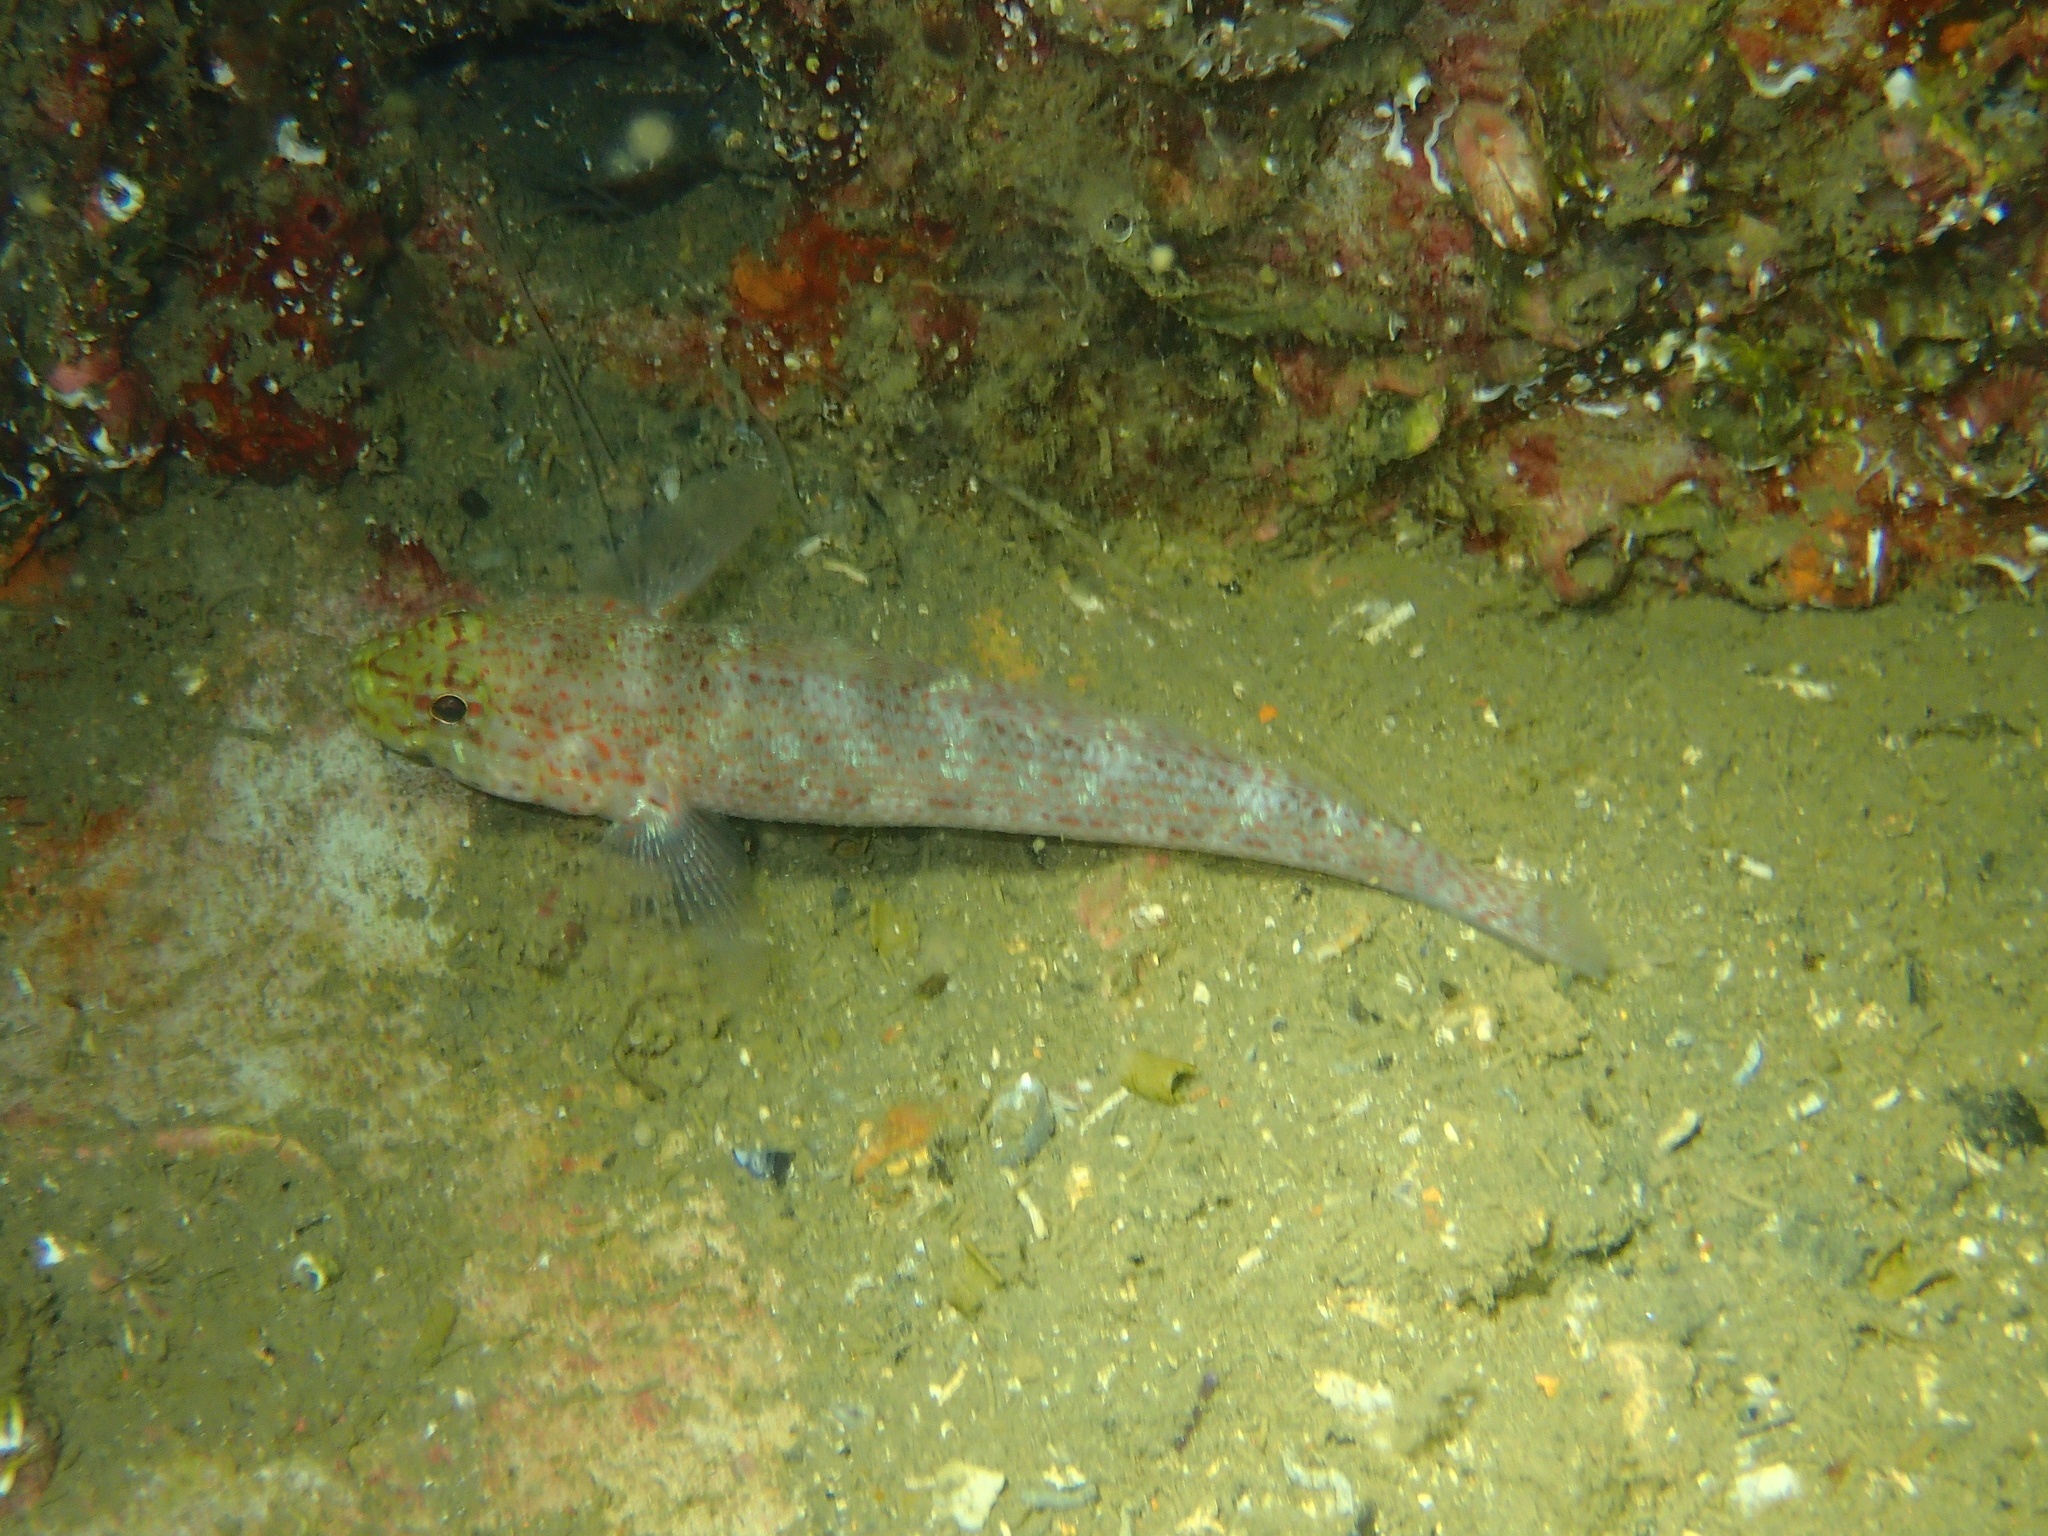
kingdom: Animalia
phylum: Chordata
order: Perciformes
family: Gobiidae
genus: Gobius
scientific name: Gobius xanthocephalus
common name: Golden goby
